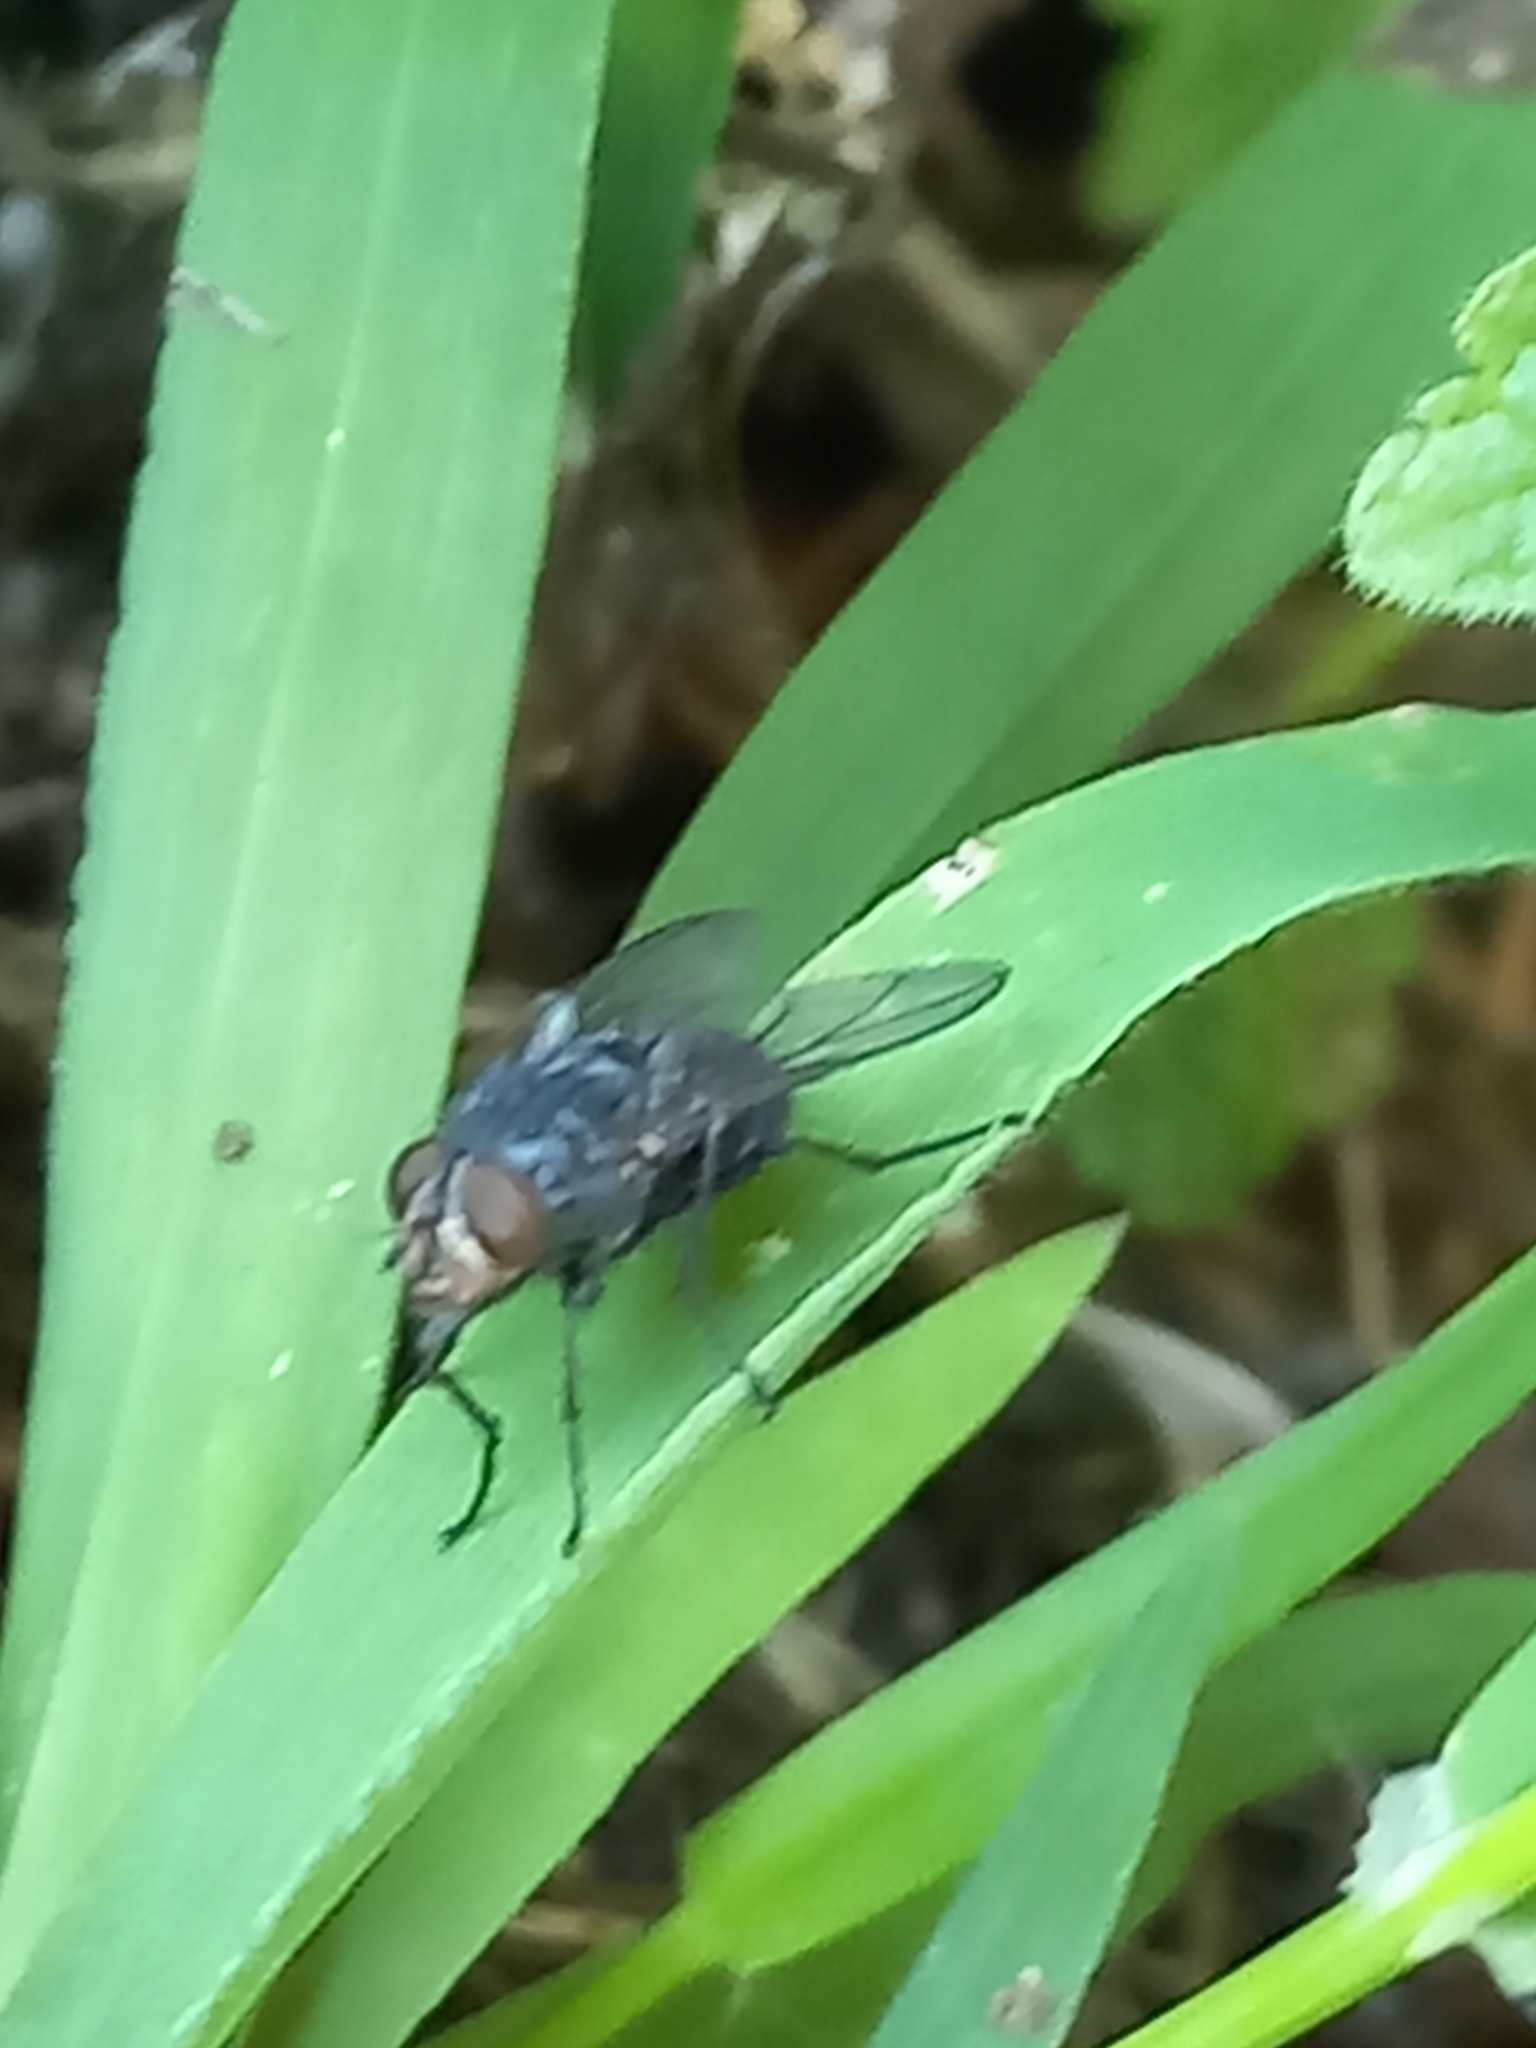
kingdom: Animalia
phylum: Arthropoda
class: Insecta
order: Diptera
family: Calliphoridae
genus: Calliphora
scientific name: Calliphora vicina
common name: Common blow flie
